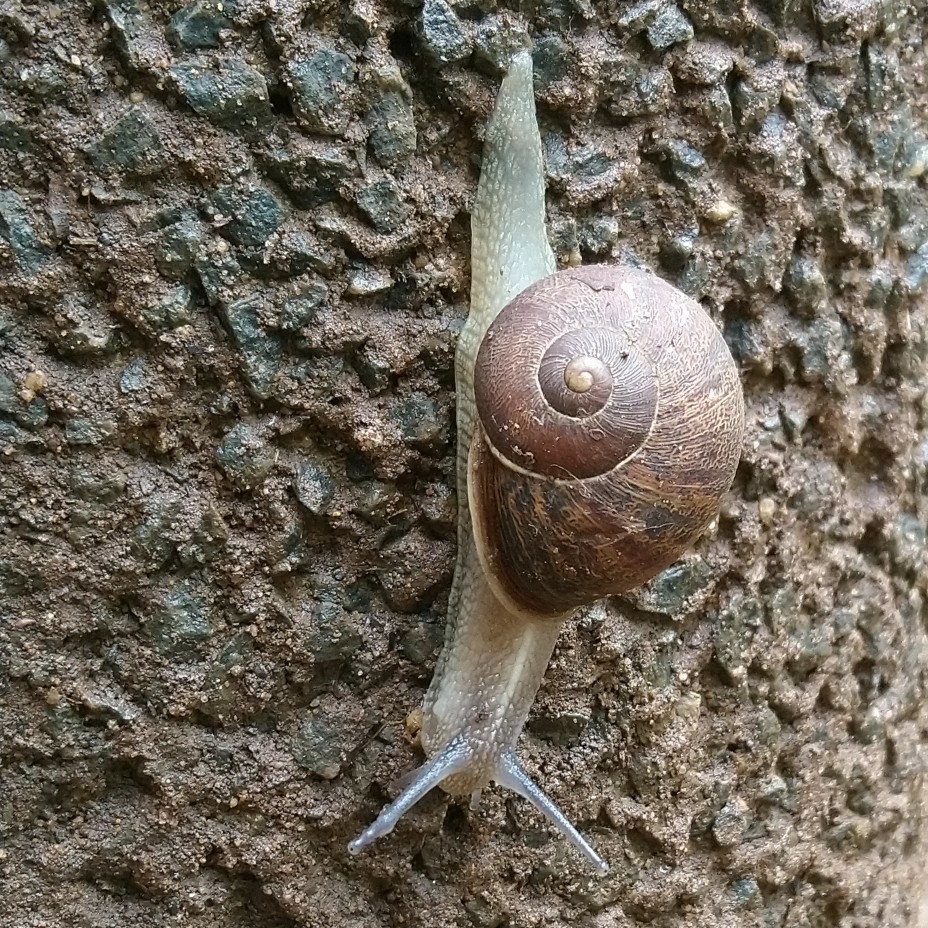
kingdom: Animalia
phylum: Mollusca
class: Gastropoda
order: Stylommatophora
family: Helicidae
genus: Cornu
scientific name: Cornu aspersum
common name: Brown garden snail
